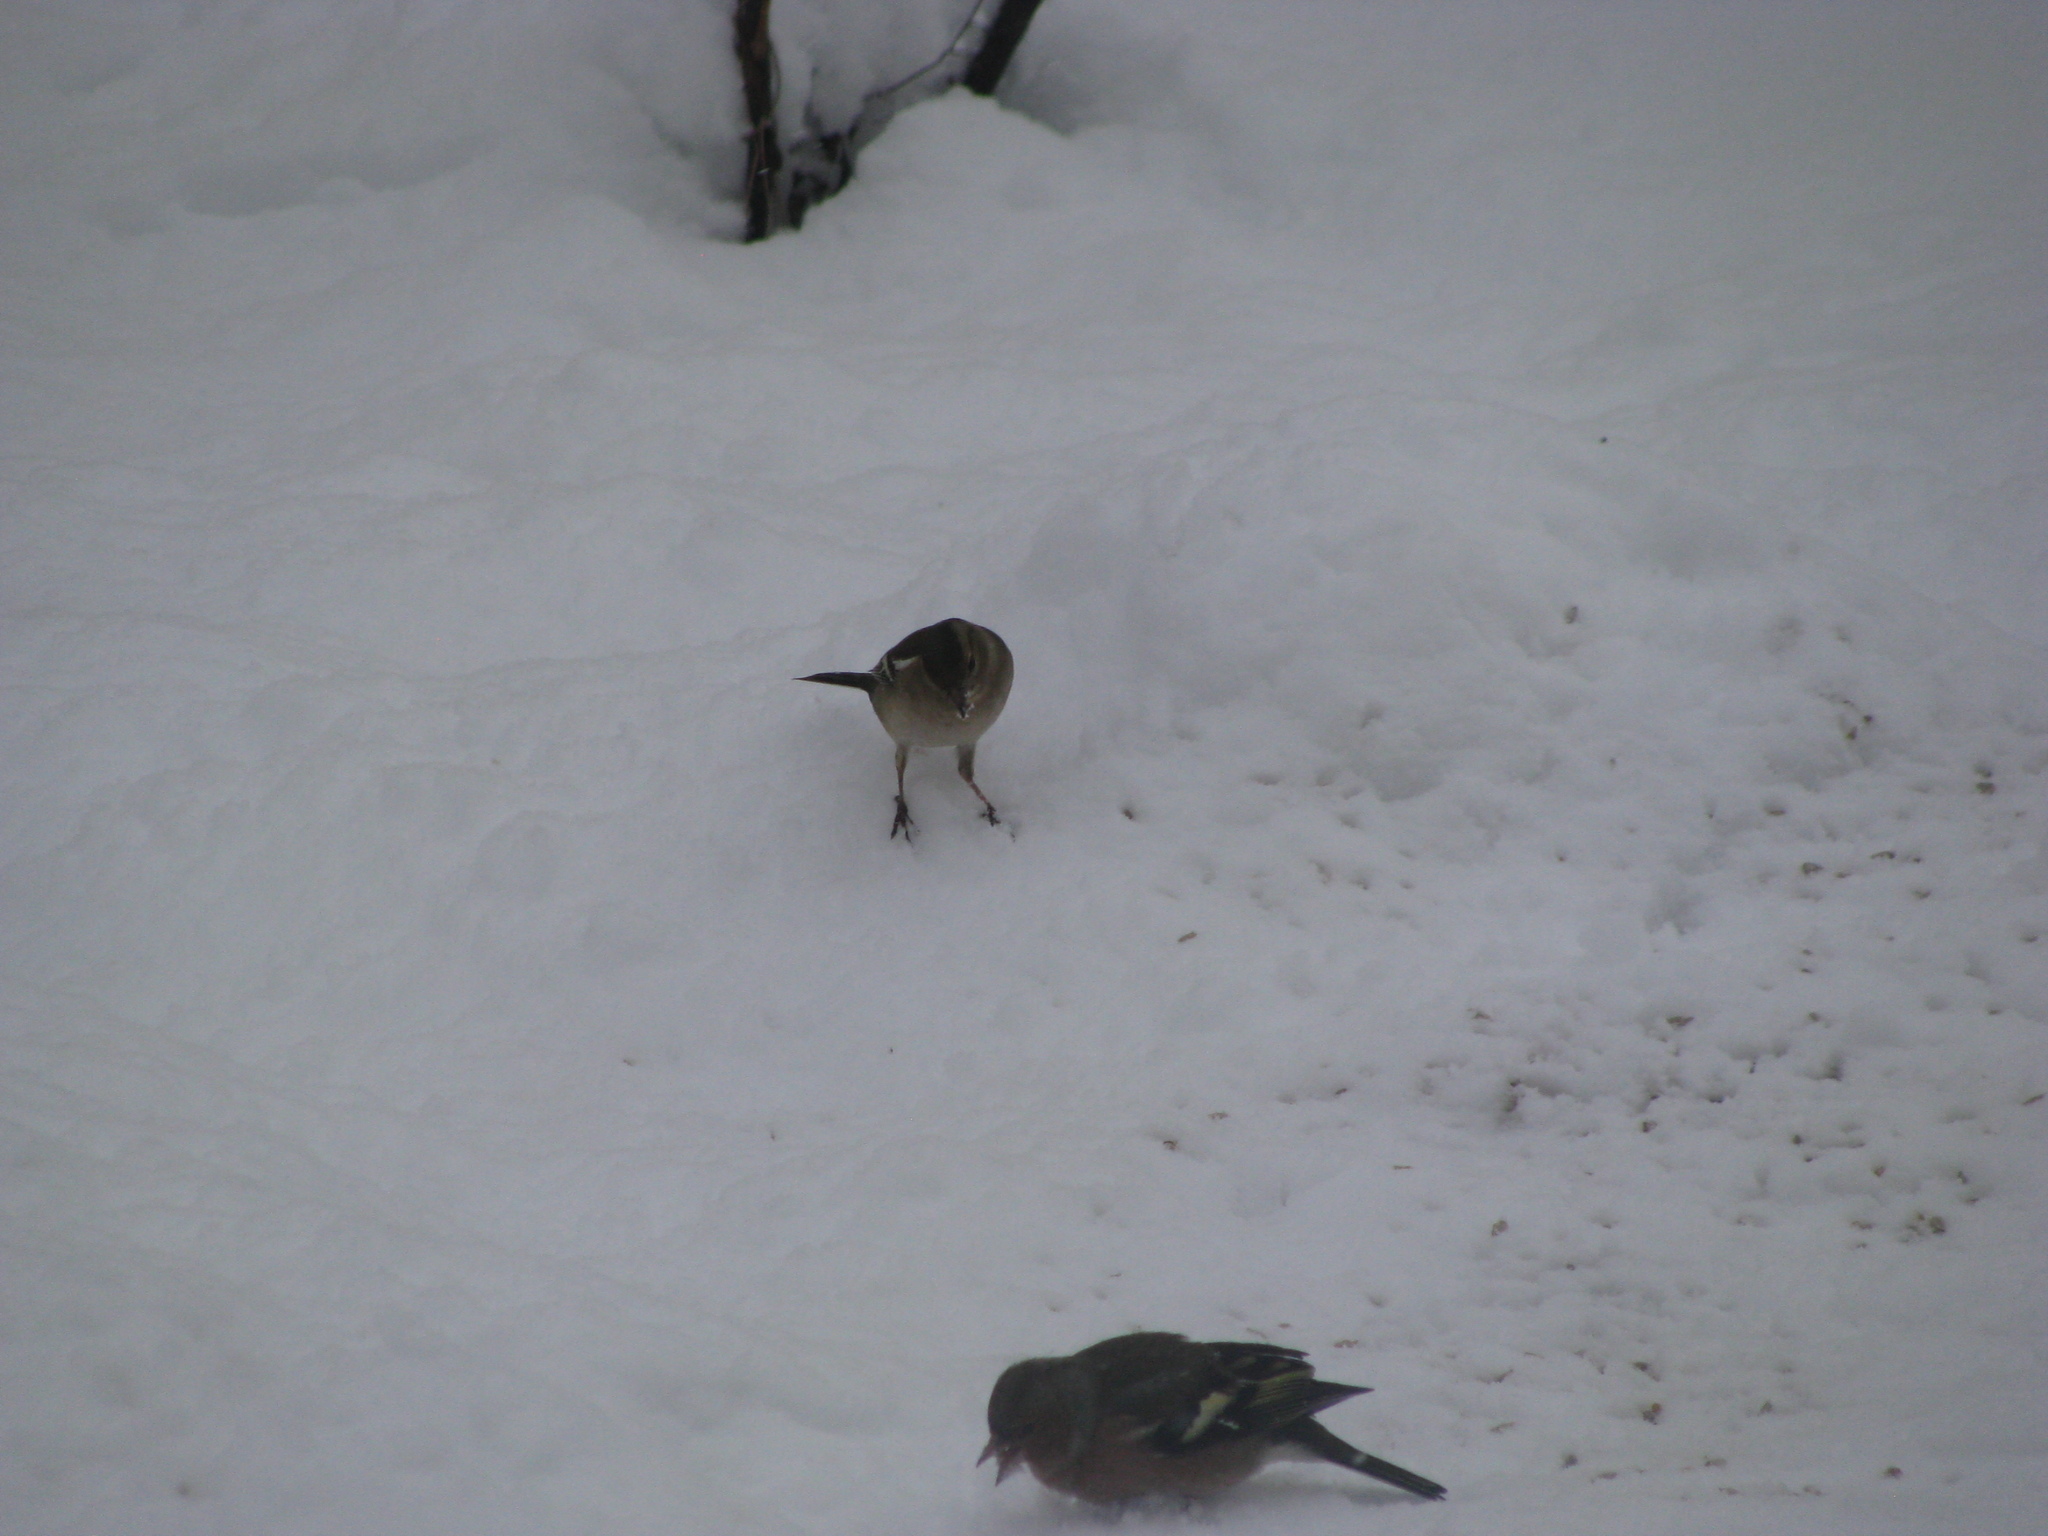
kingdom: Animalia
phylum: Chordata
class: Aves
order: Passeriformes
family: Fringillidae
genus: Fringilla
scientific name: Fringilla coelebs
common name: Common chaffinch
